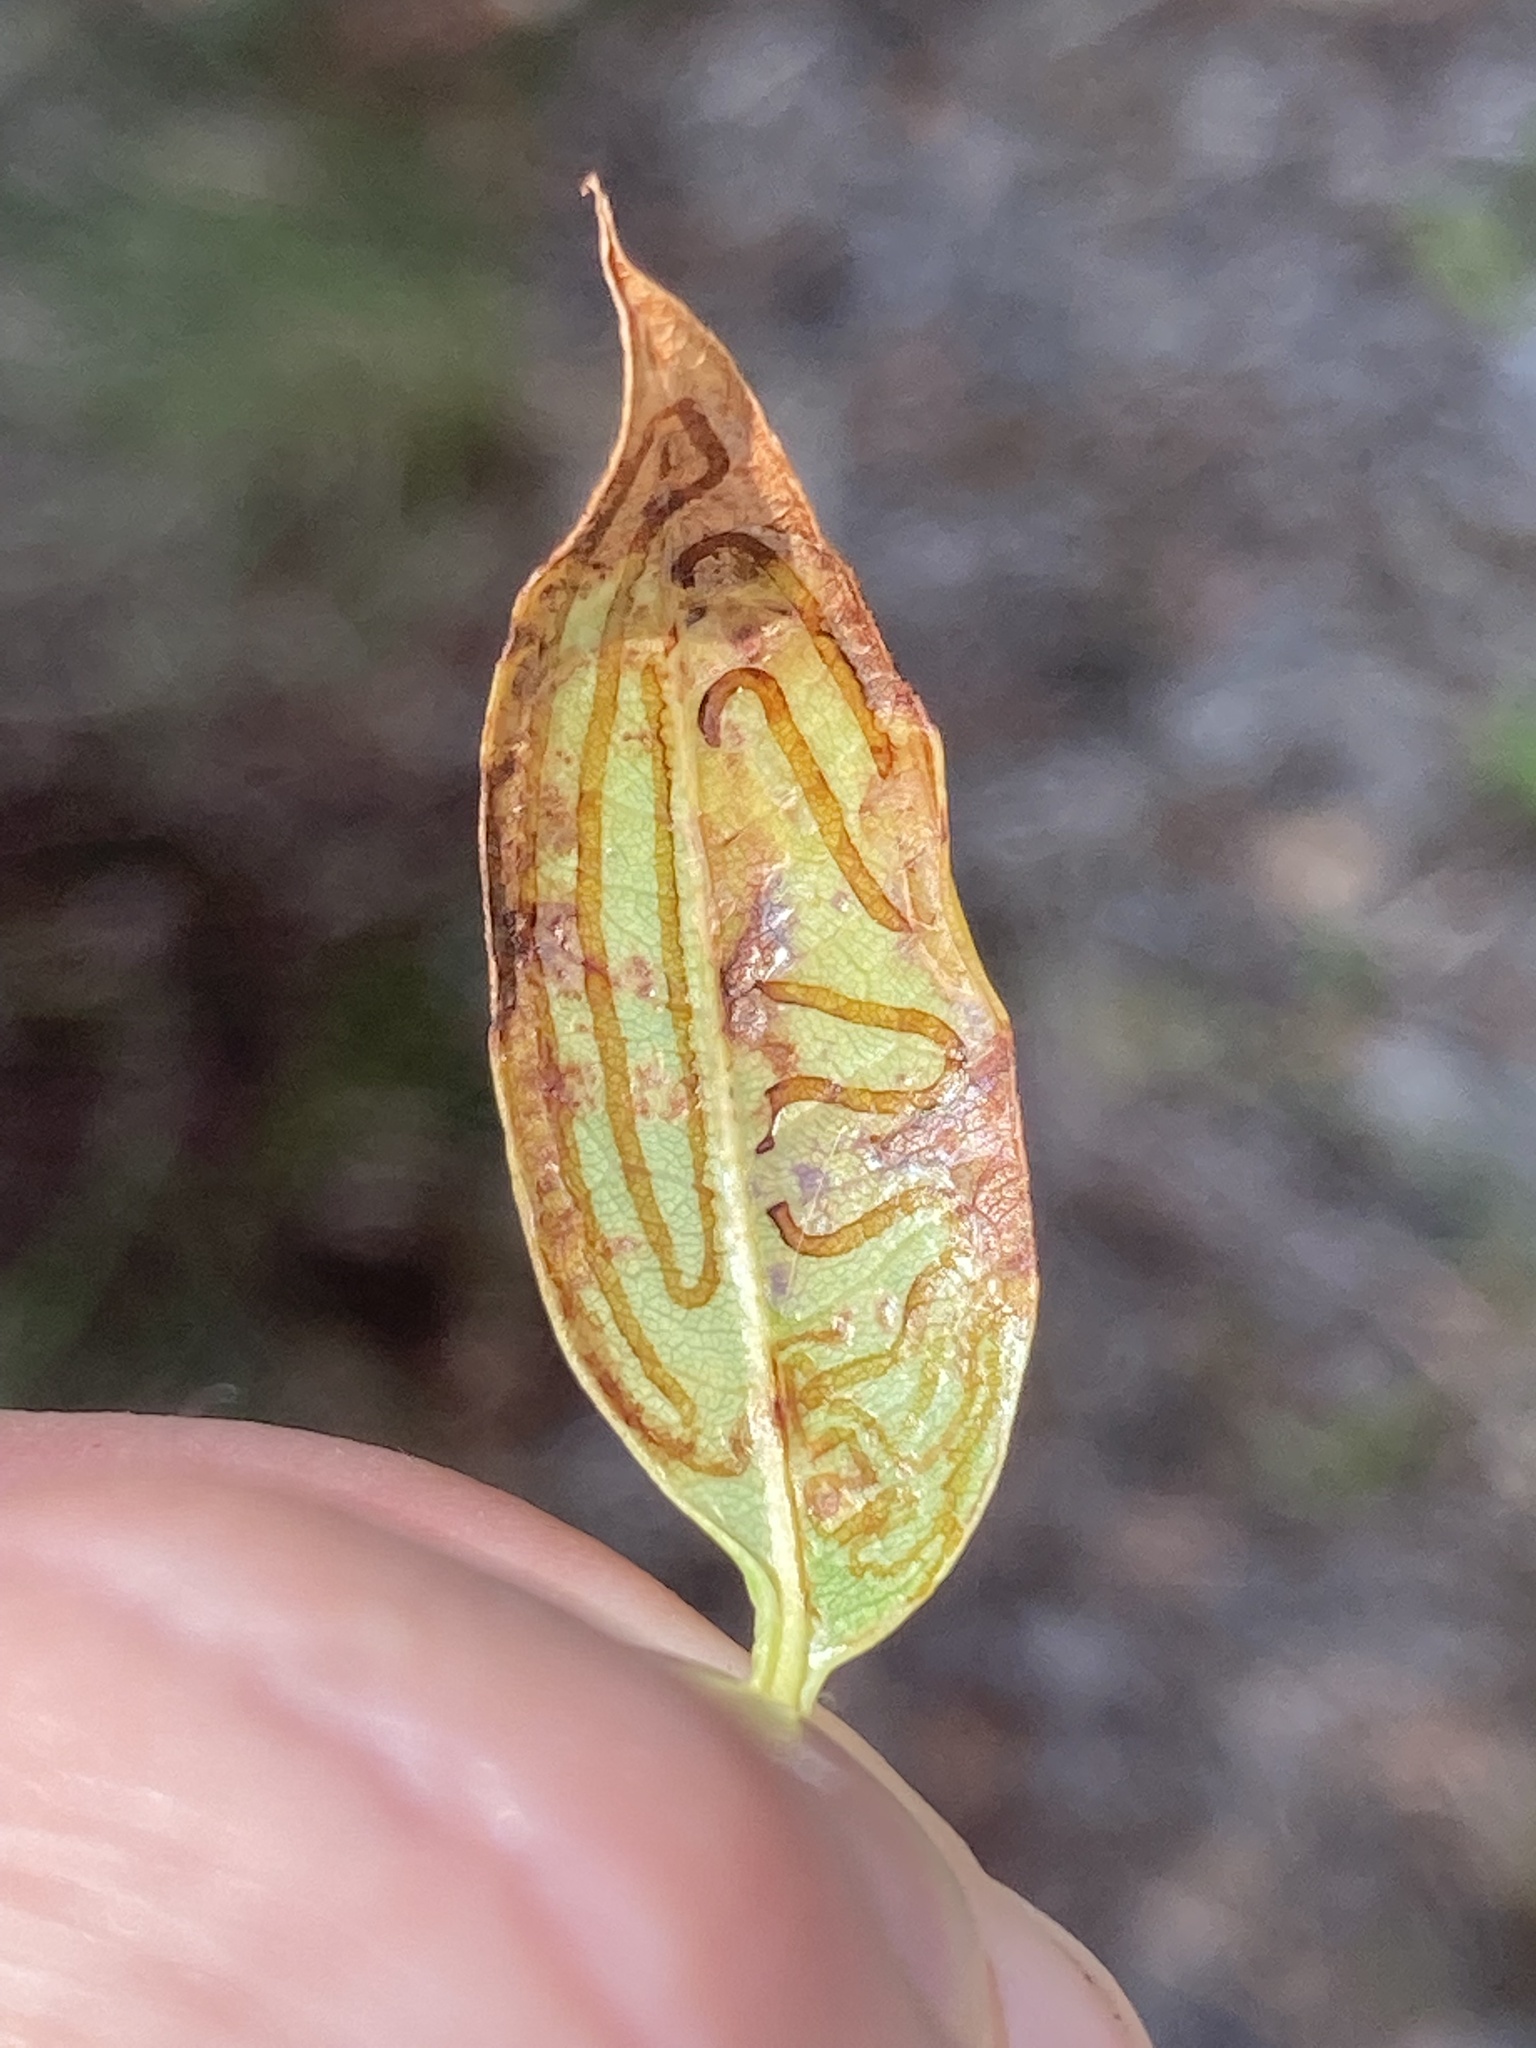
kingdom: Animalia
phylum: Arthropoda
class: Insecta
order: Lepidoptera
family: Gracillariidae
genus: Phyllocnistis
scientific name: Phyllocnistis meliacella
